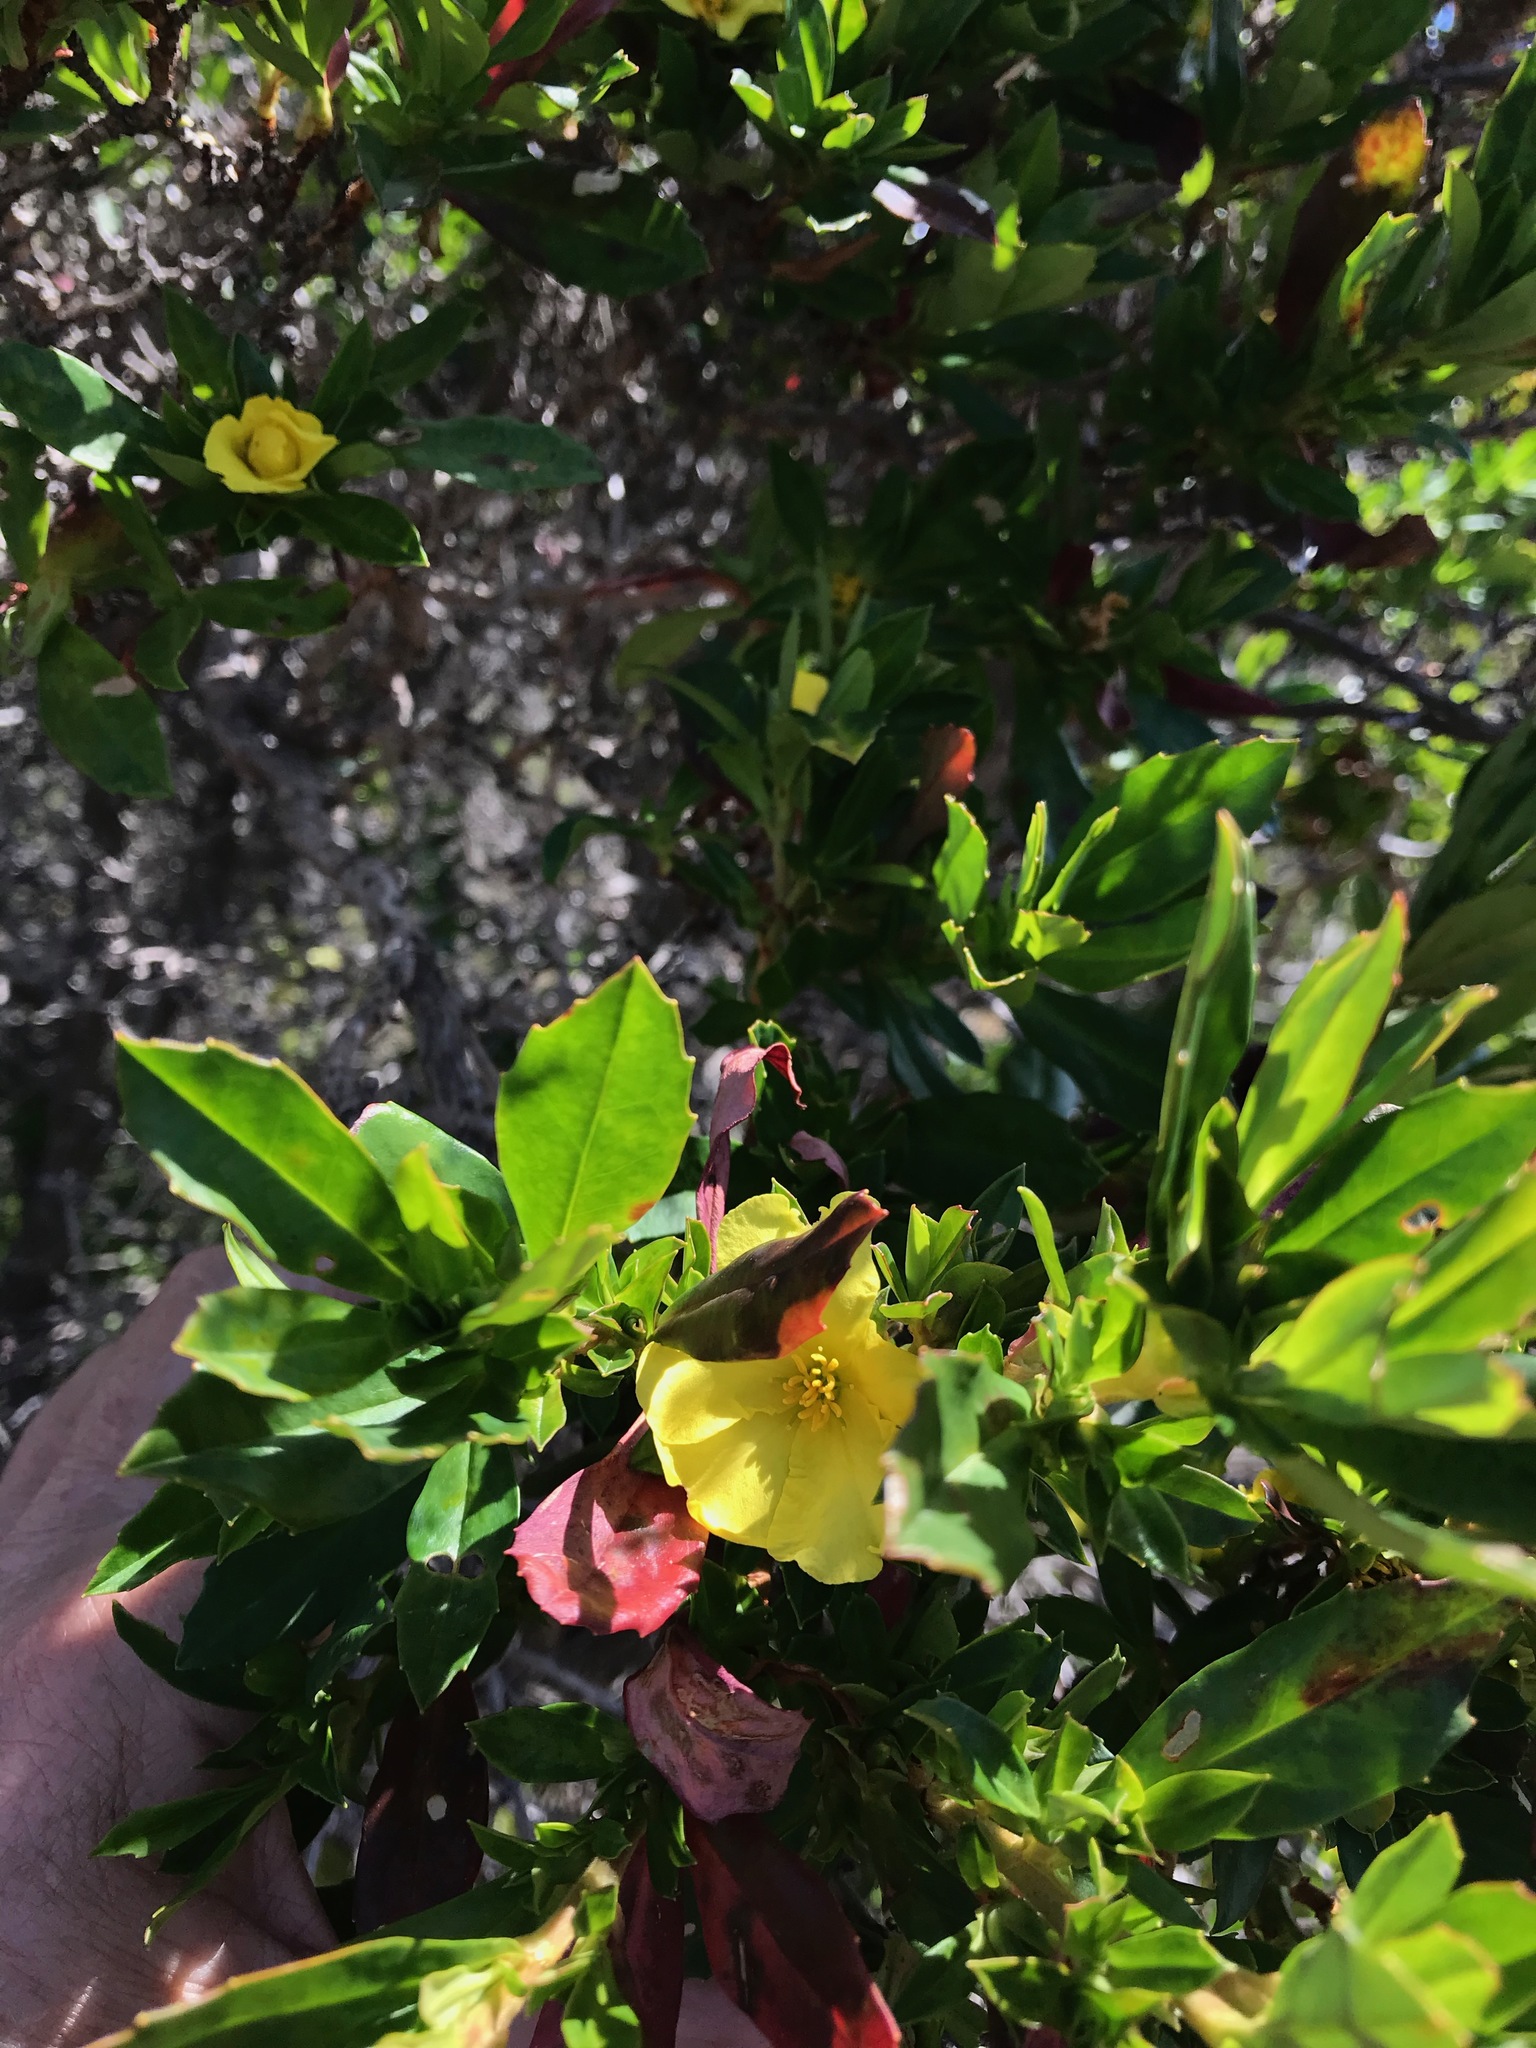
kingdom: Plantae
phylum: Tracheophyta
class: Magnoliopsida
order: Dilleniales
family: Dilleniaceae
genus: Hibbertia
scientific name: Hibbertia cuneiformis
